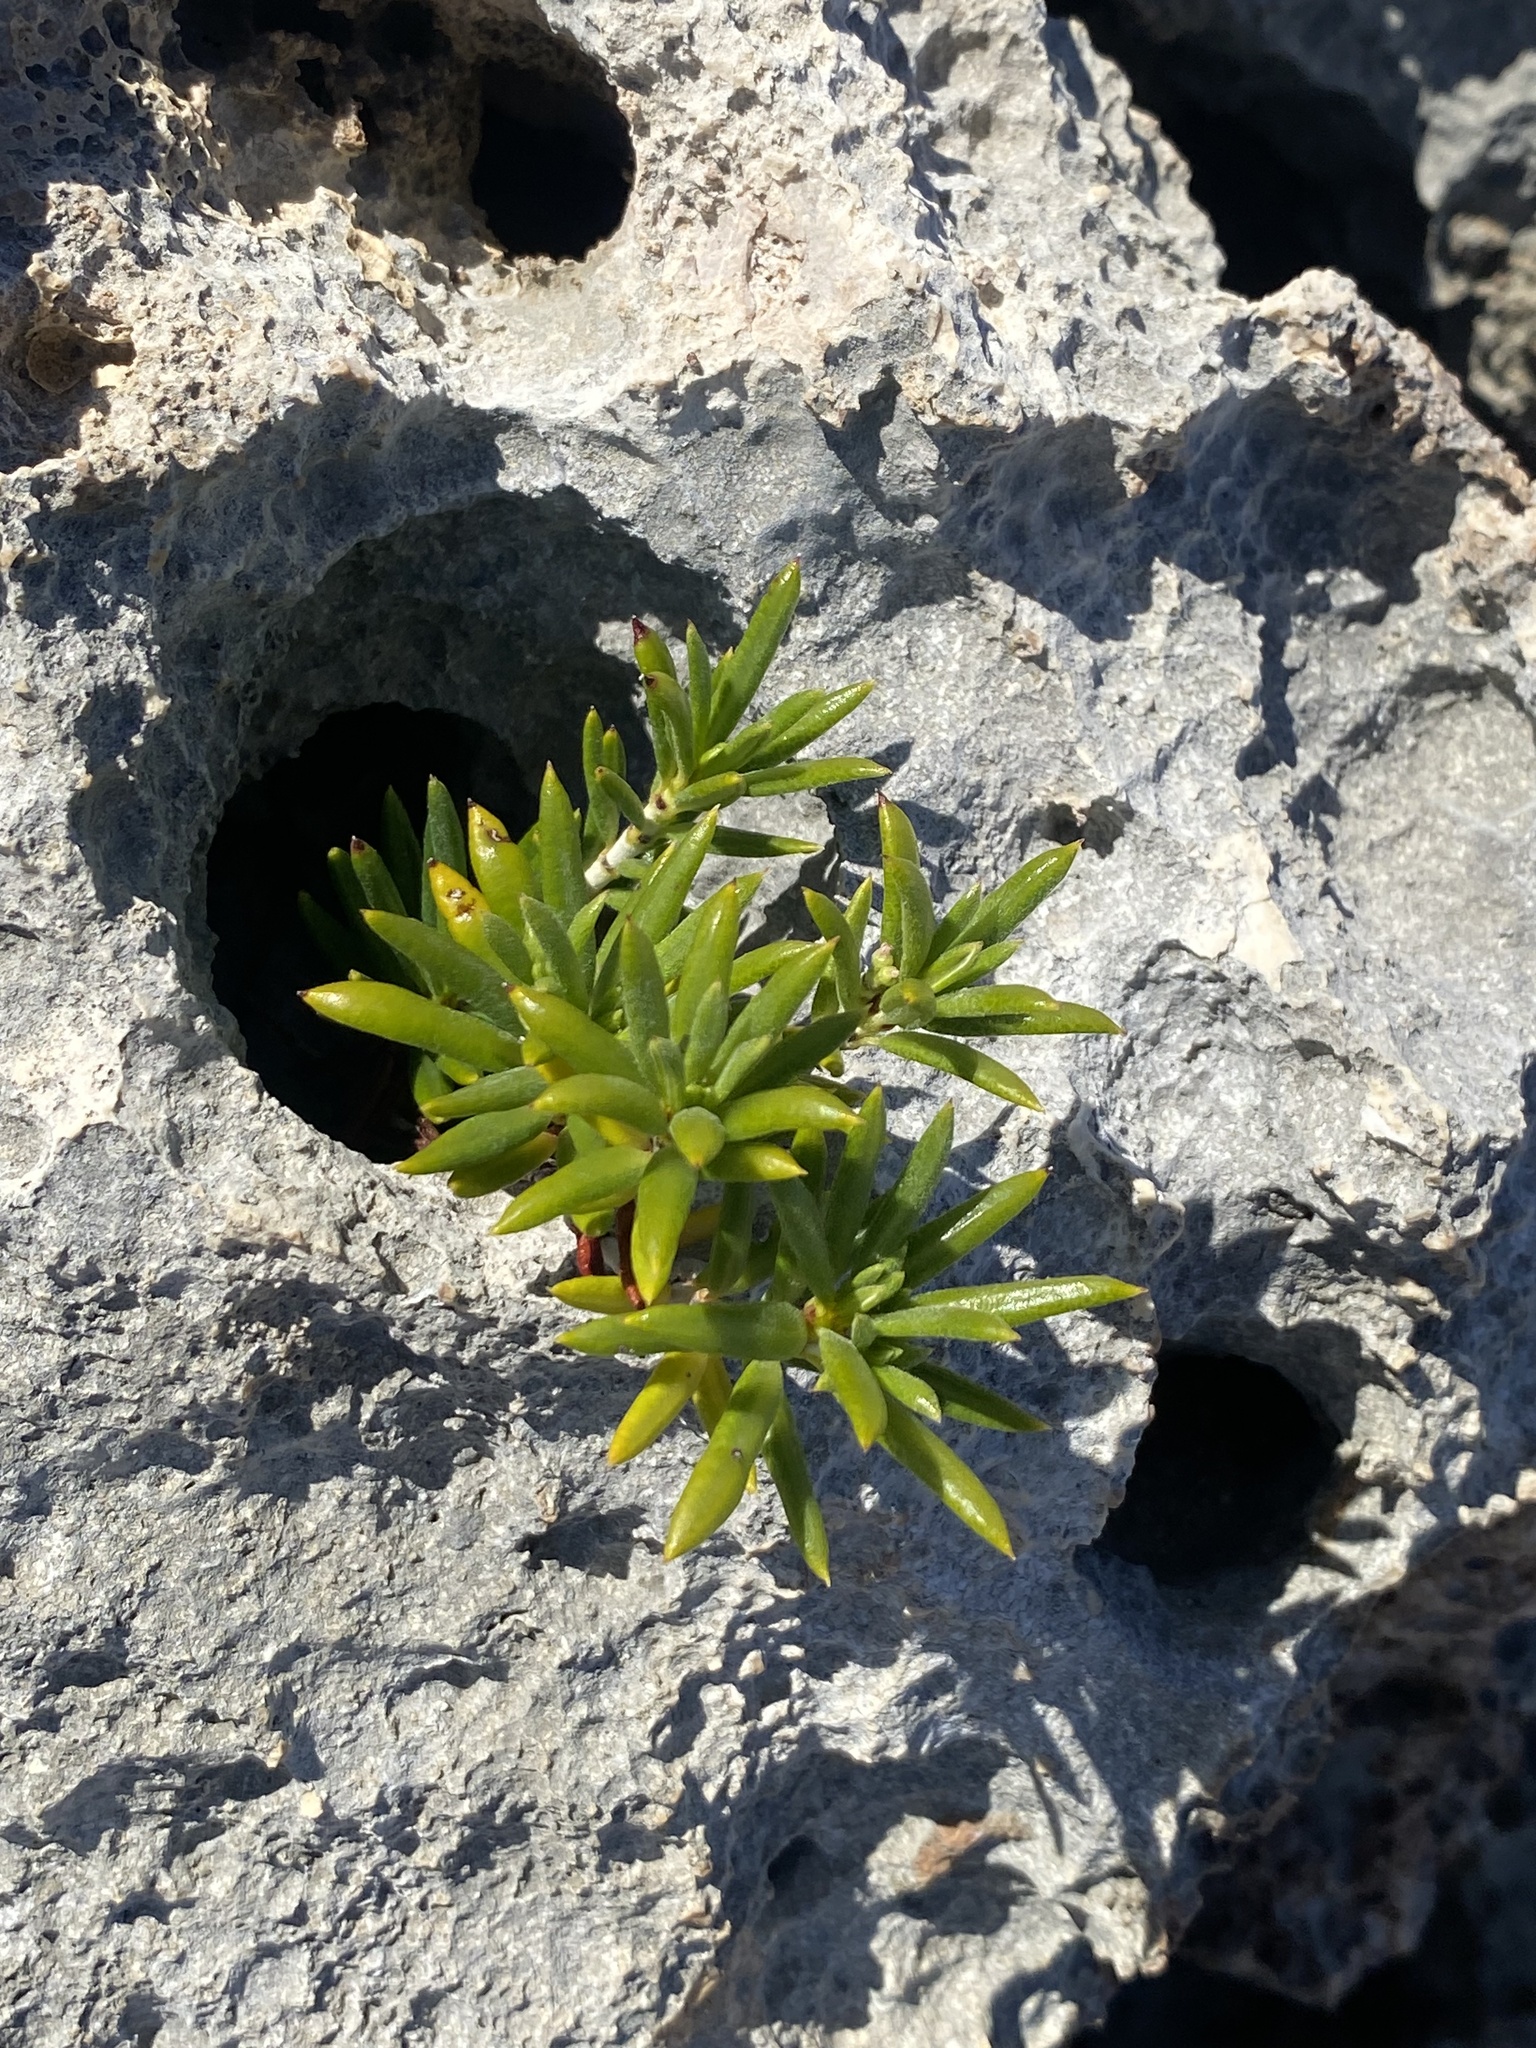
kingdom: Plantae
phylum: Tracheophyta
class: Magnoliopsida
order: Gentianales
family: Rubiaceae
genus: Strumpfia
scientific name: Strumpfia maritima
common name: Pride-of-big pine
